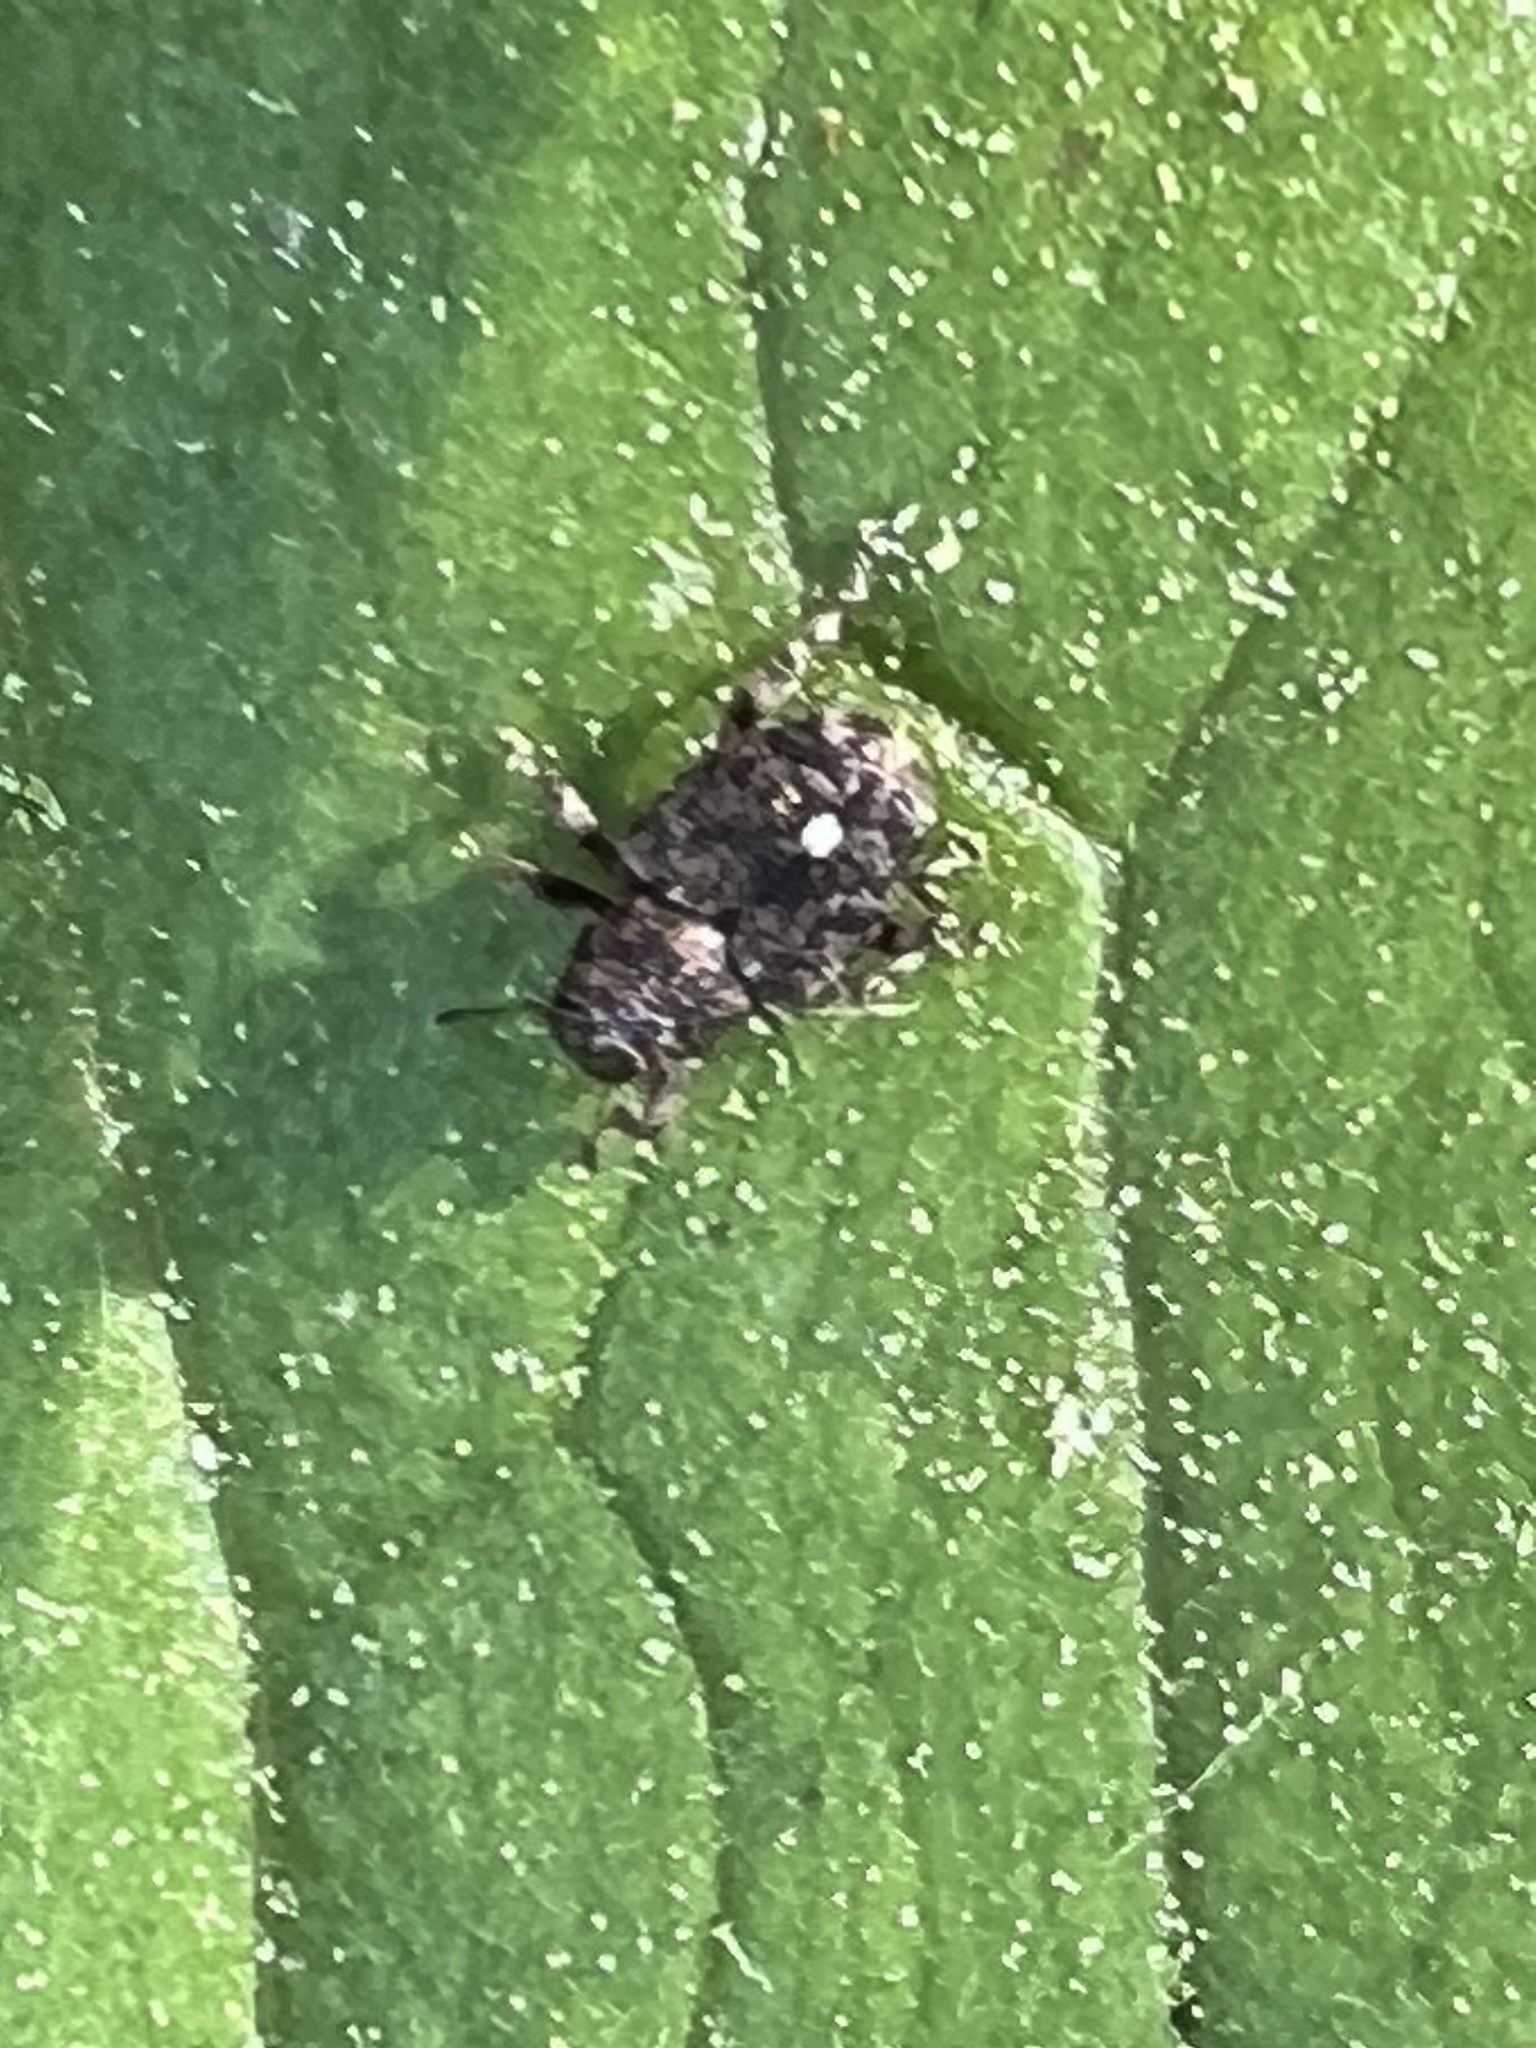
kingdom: Animalia
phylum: Arthropoda
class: Insecta
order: Coleoptera
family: Curculionidae
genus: Lechriops
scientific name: Lechriops oculatus
